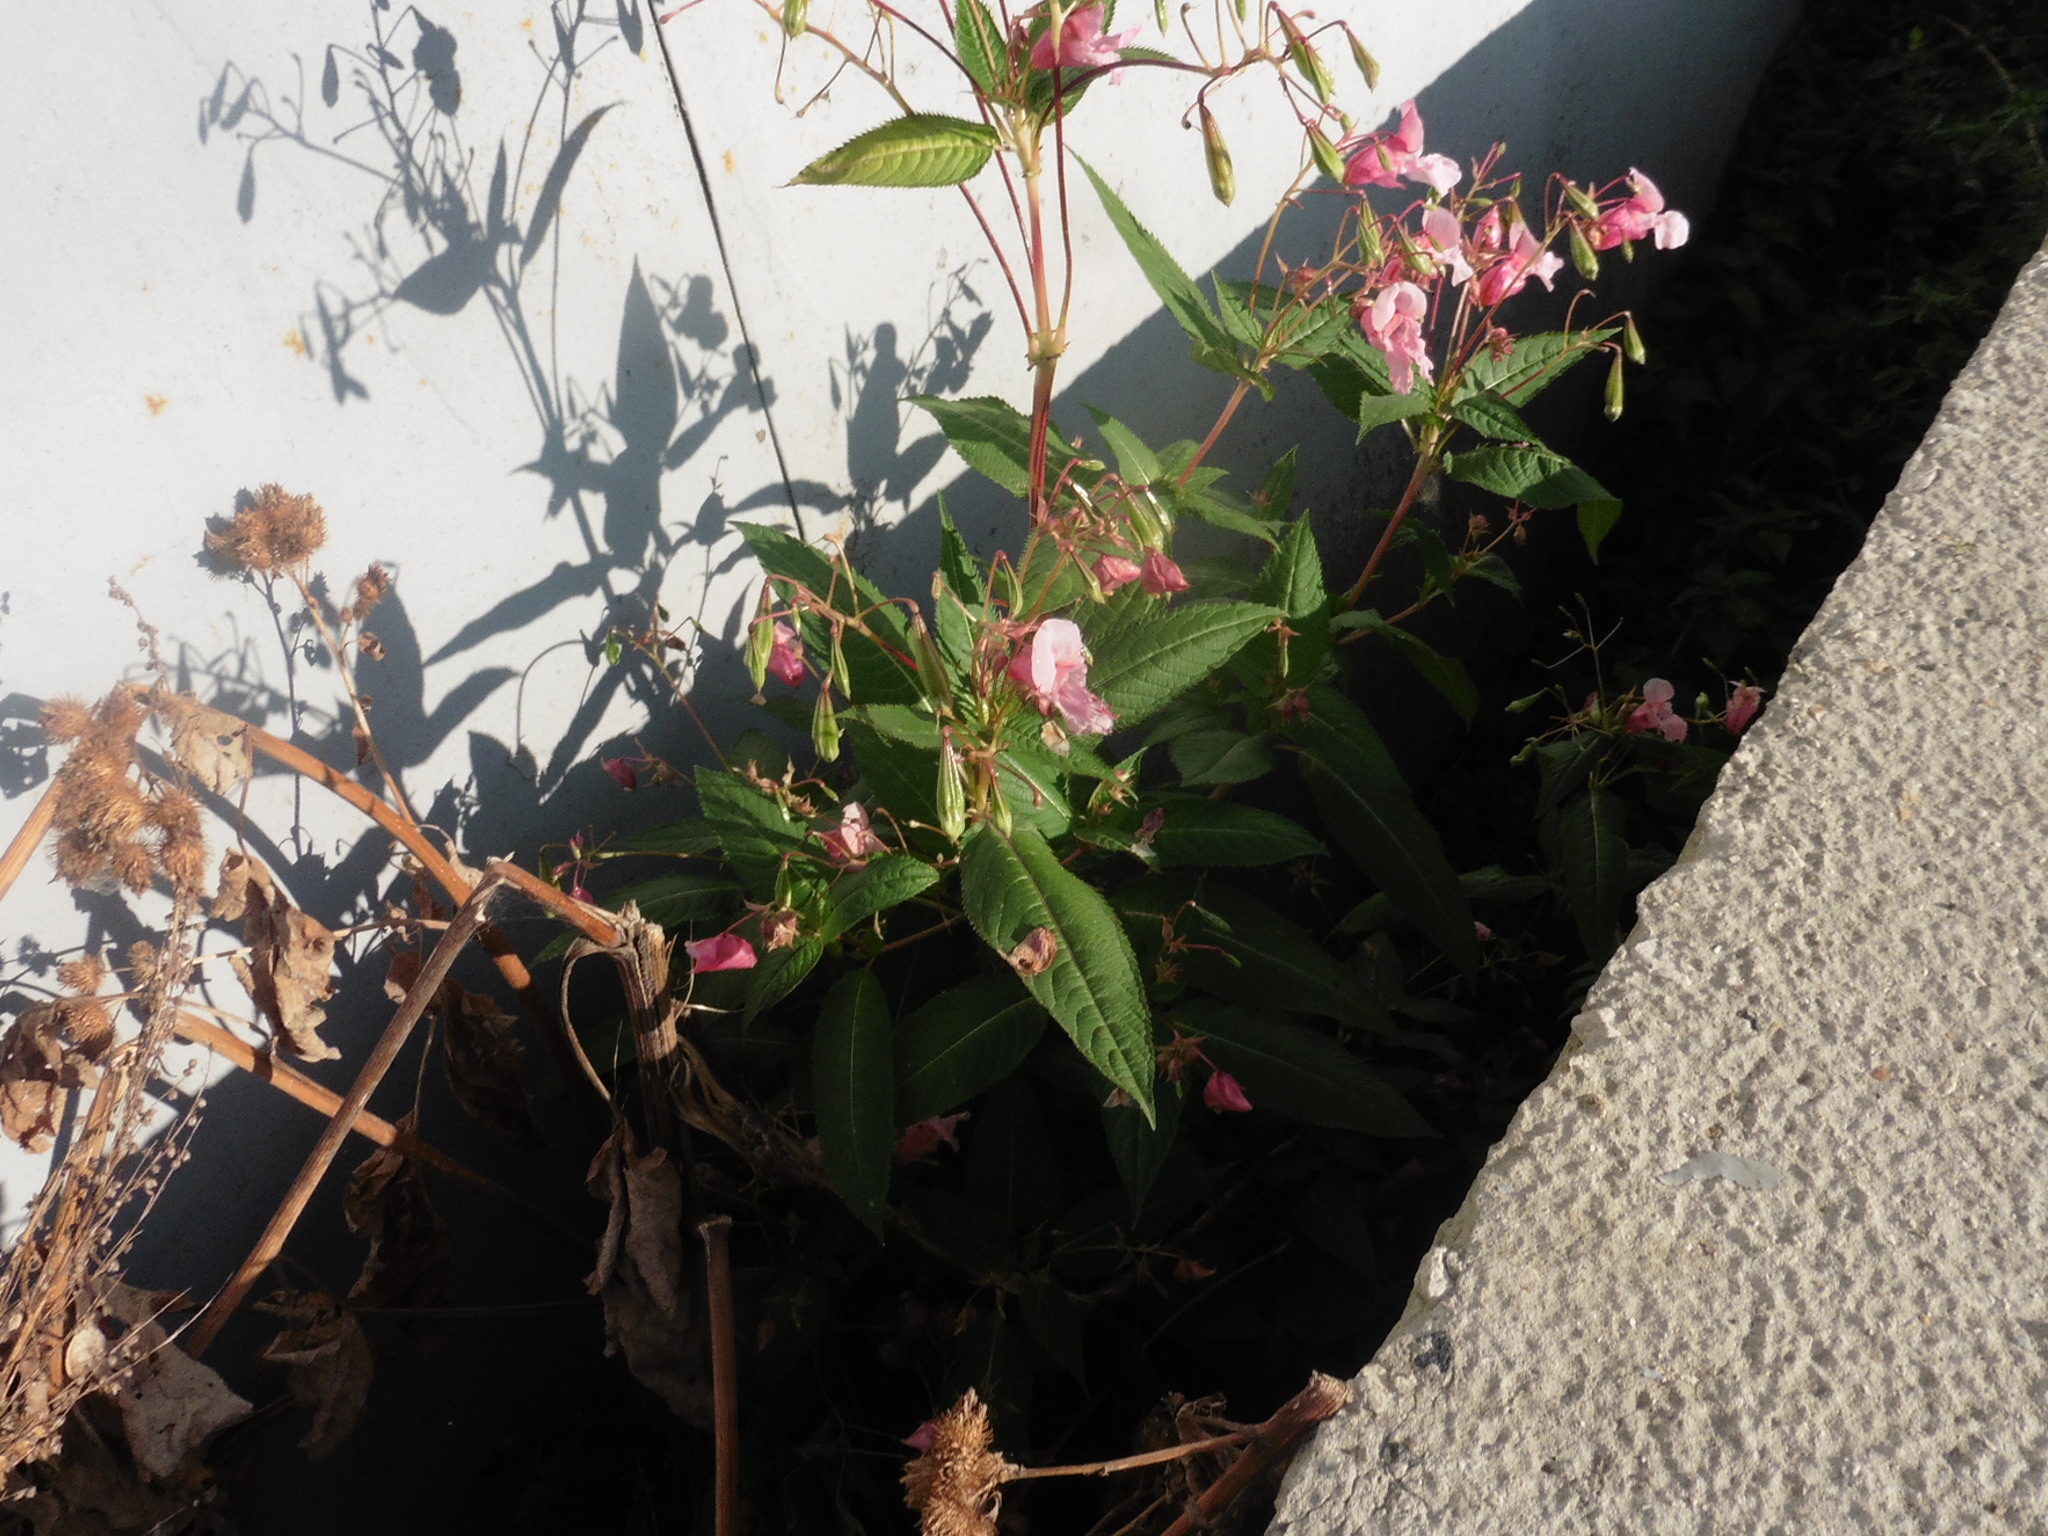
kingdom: Plantae
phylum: Tracheophyta
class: Magnoliopsida
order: Ericales
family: Balsaminaceae
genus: Impatiens
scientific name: Impatiens glandulifera
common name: Himalayan balsam
